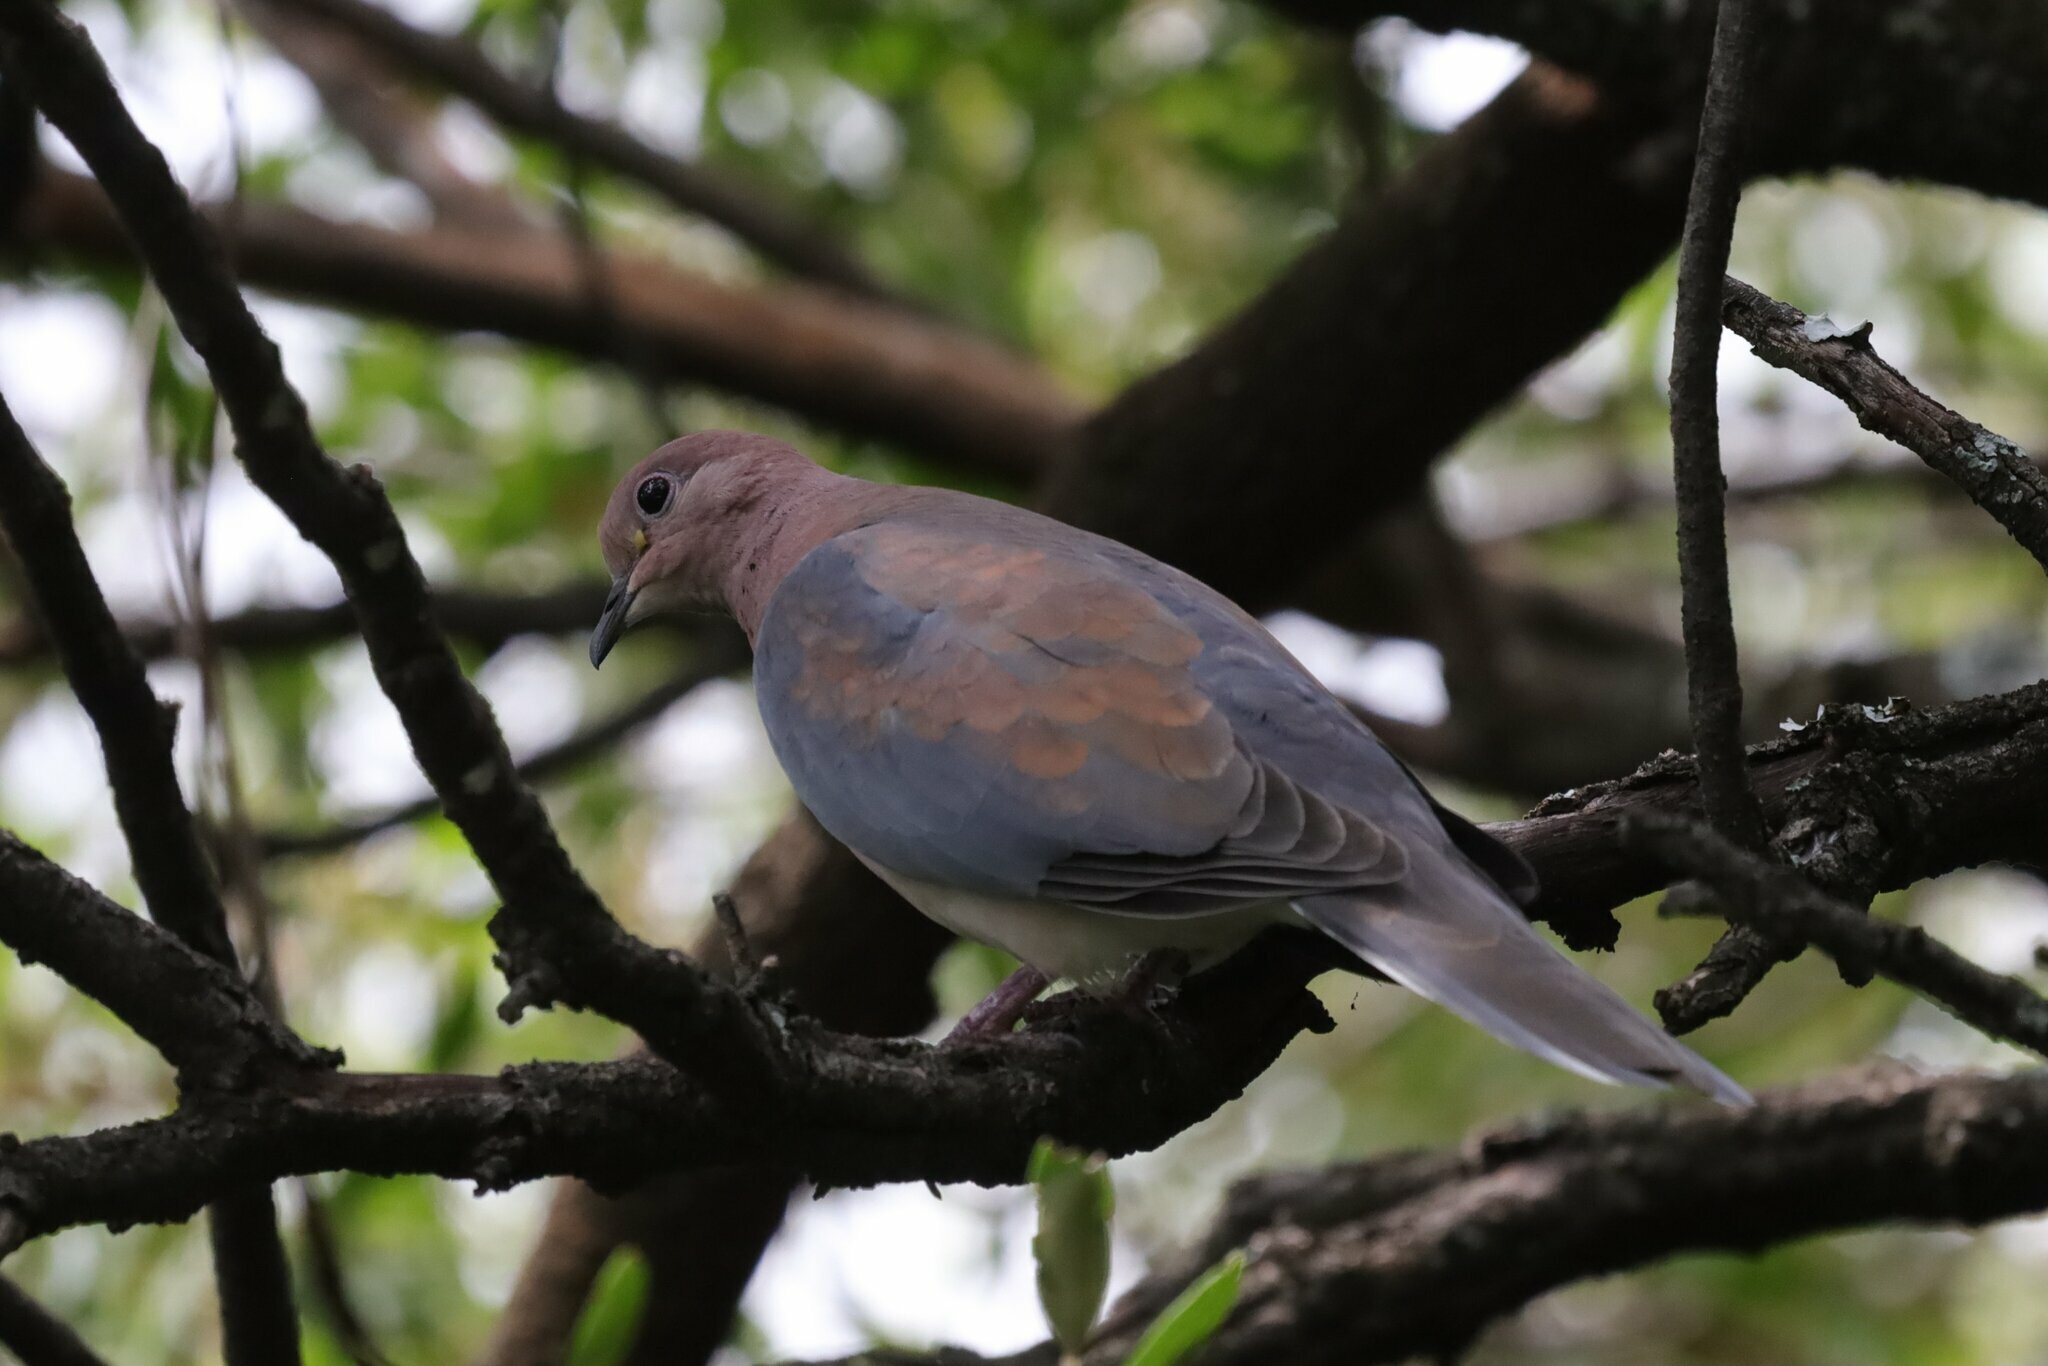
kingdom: Animalia
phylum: Chordata
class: Aves
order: Columbiformes
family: Columbidae
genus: Spilopelia
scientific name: Spilopelia senegalensis
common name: Laughing dove
